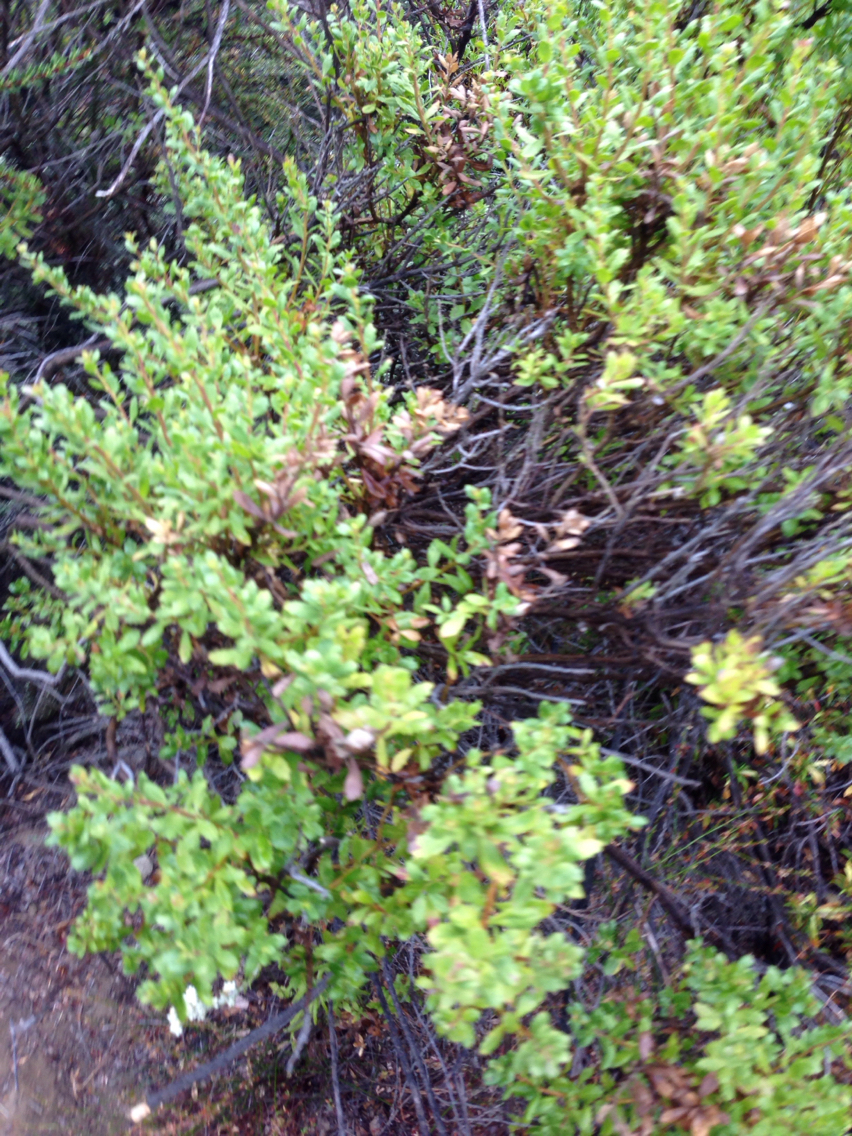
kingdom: Plantae
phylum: Tracheophyta
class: Magnoliopsida
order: Asterales
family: Asteraceae
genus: Baccharis
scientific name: Baccharis pilularis
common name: Coyotebrush
